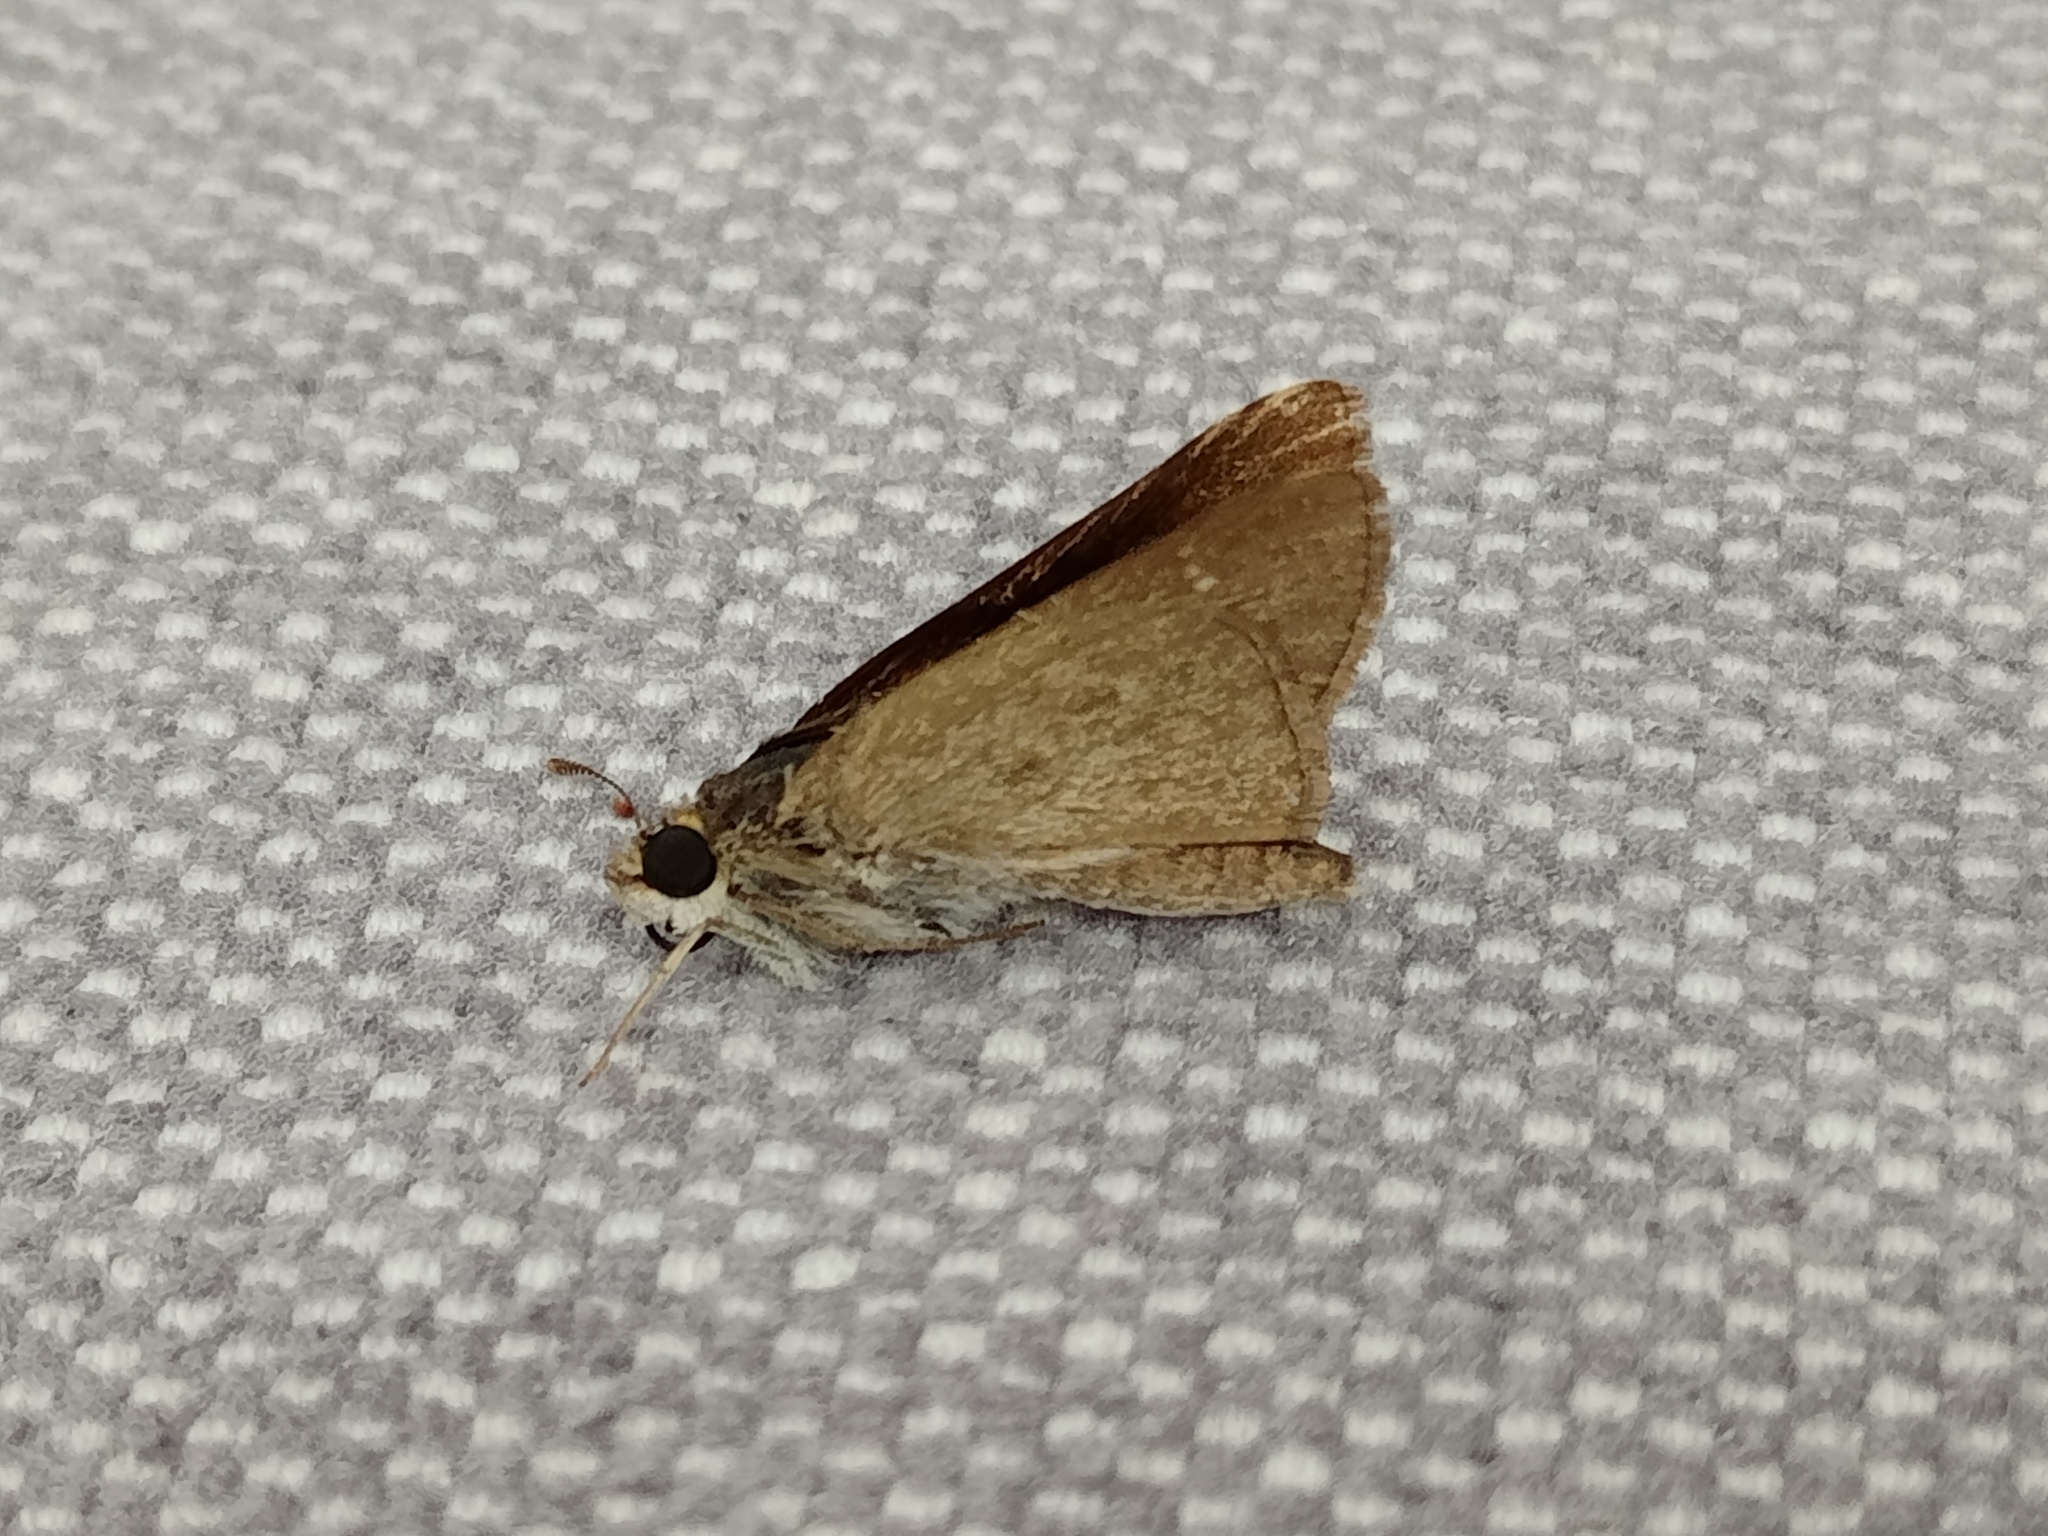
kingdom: Animalia
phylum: Arthropoda
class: Insecta
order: Lepidoptera
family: Hesperiidae
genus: Gegenes
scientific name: Gegenes pumilio
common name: Pigmy skipper
